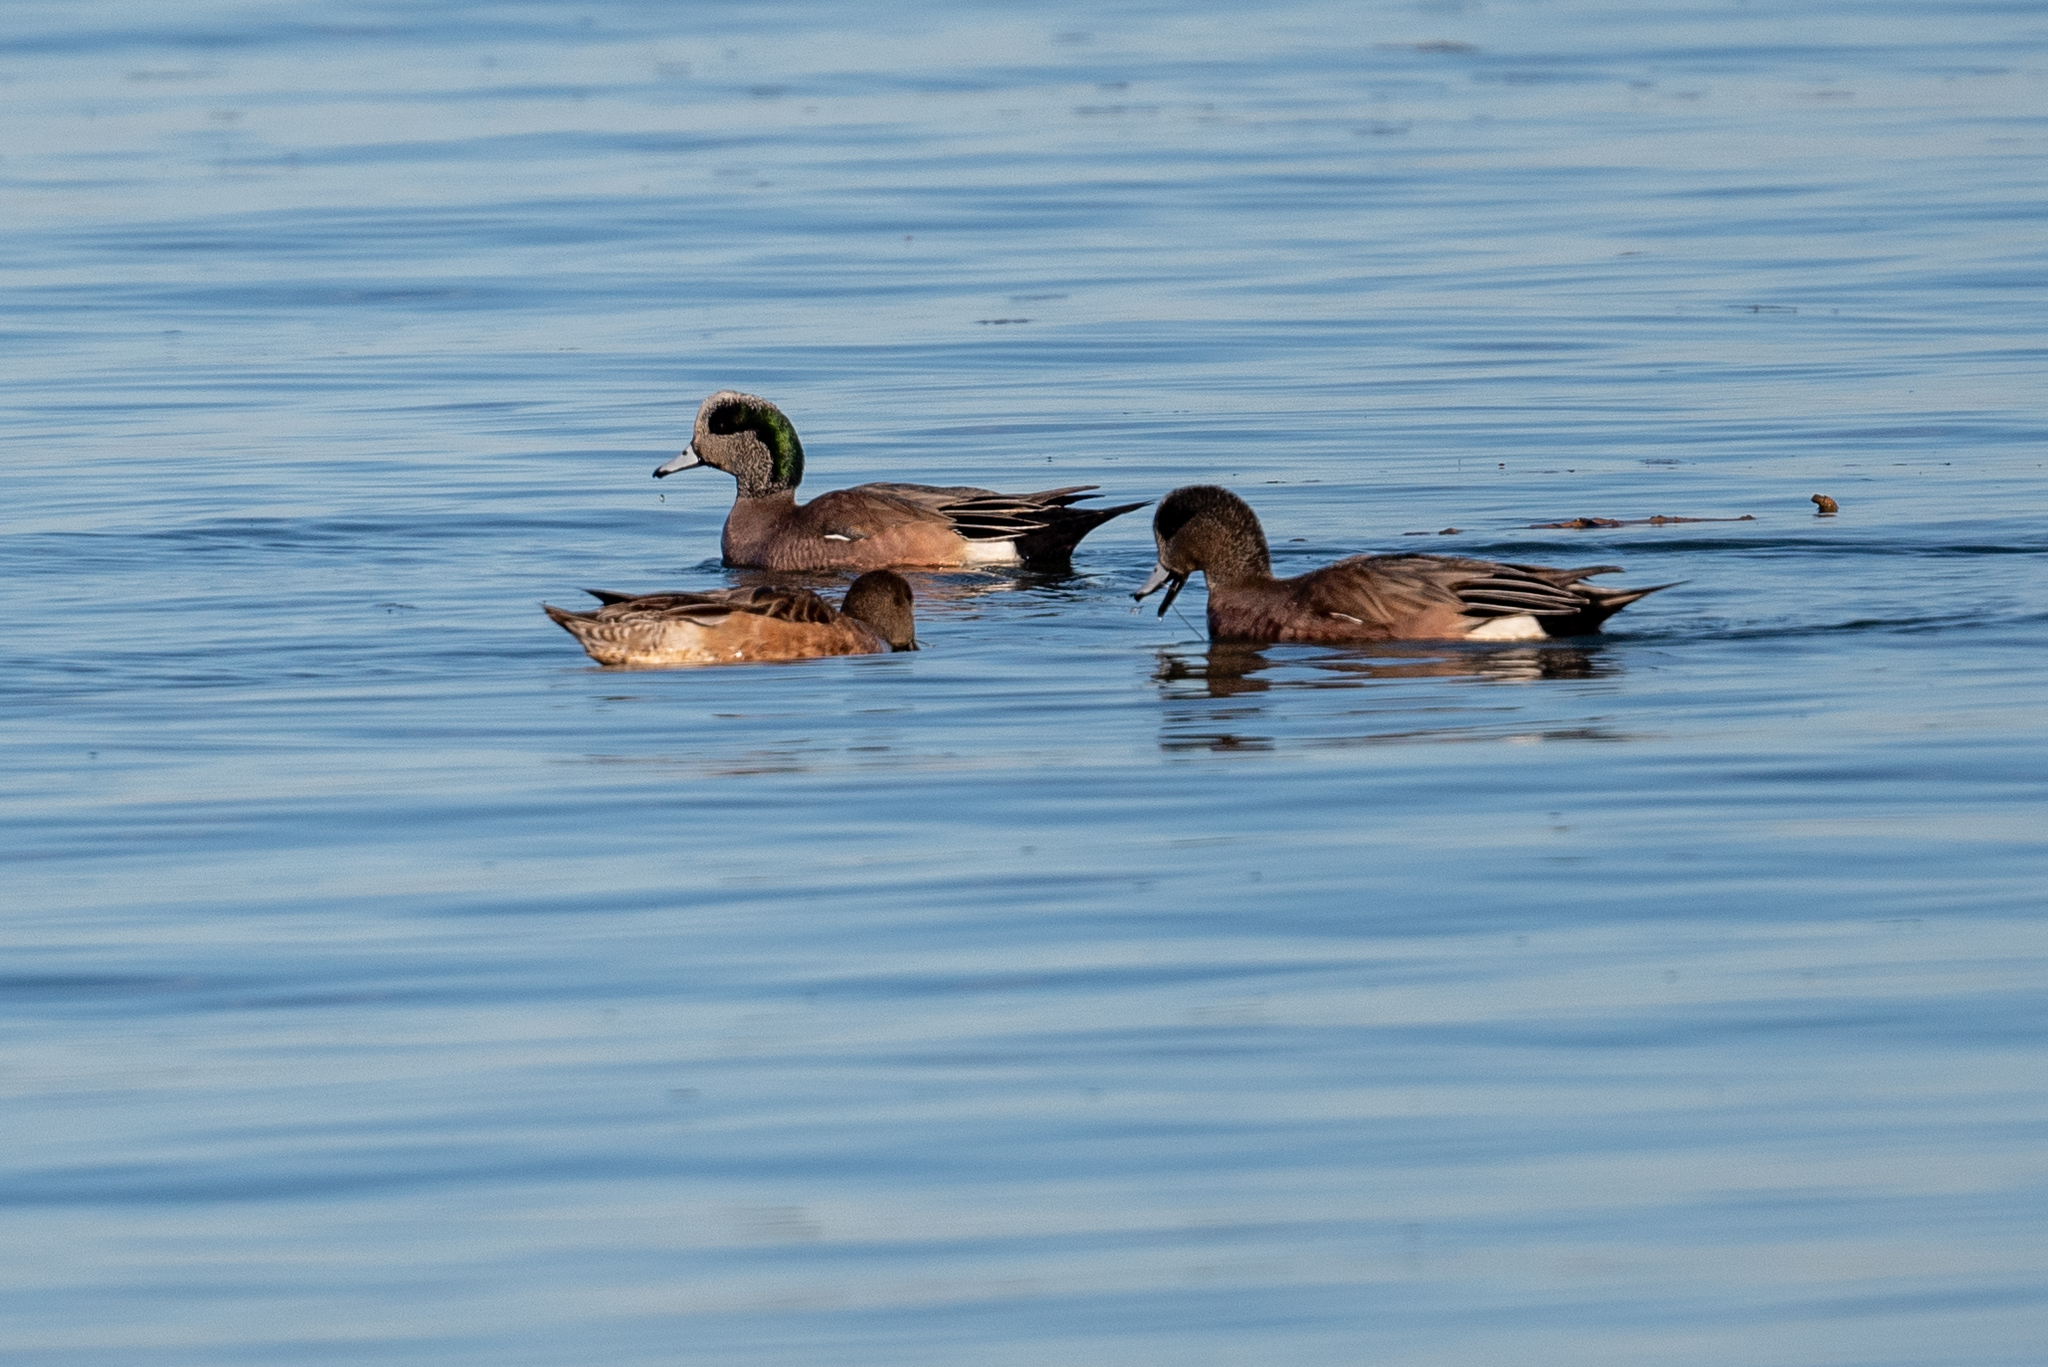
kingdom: Animalia
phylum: Chordata
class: Aves
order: Anseriformes
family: Anatidae
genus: Mareca
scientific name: Mareca americana
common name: American wigeon
